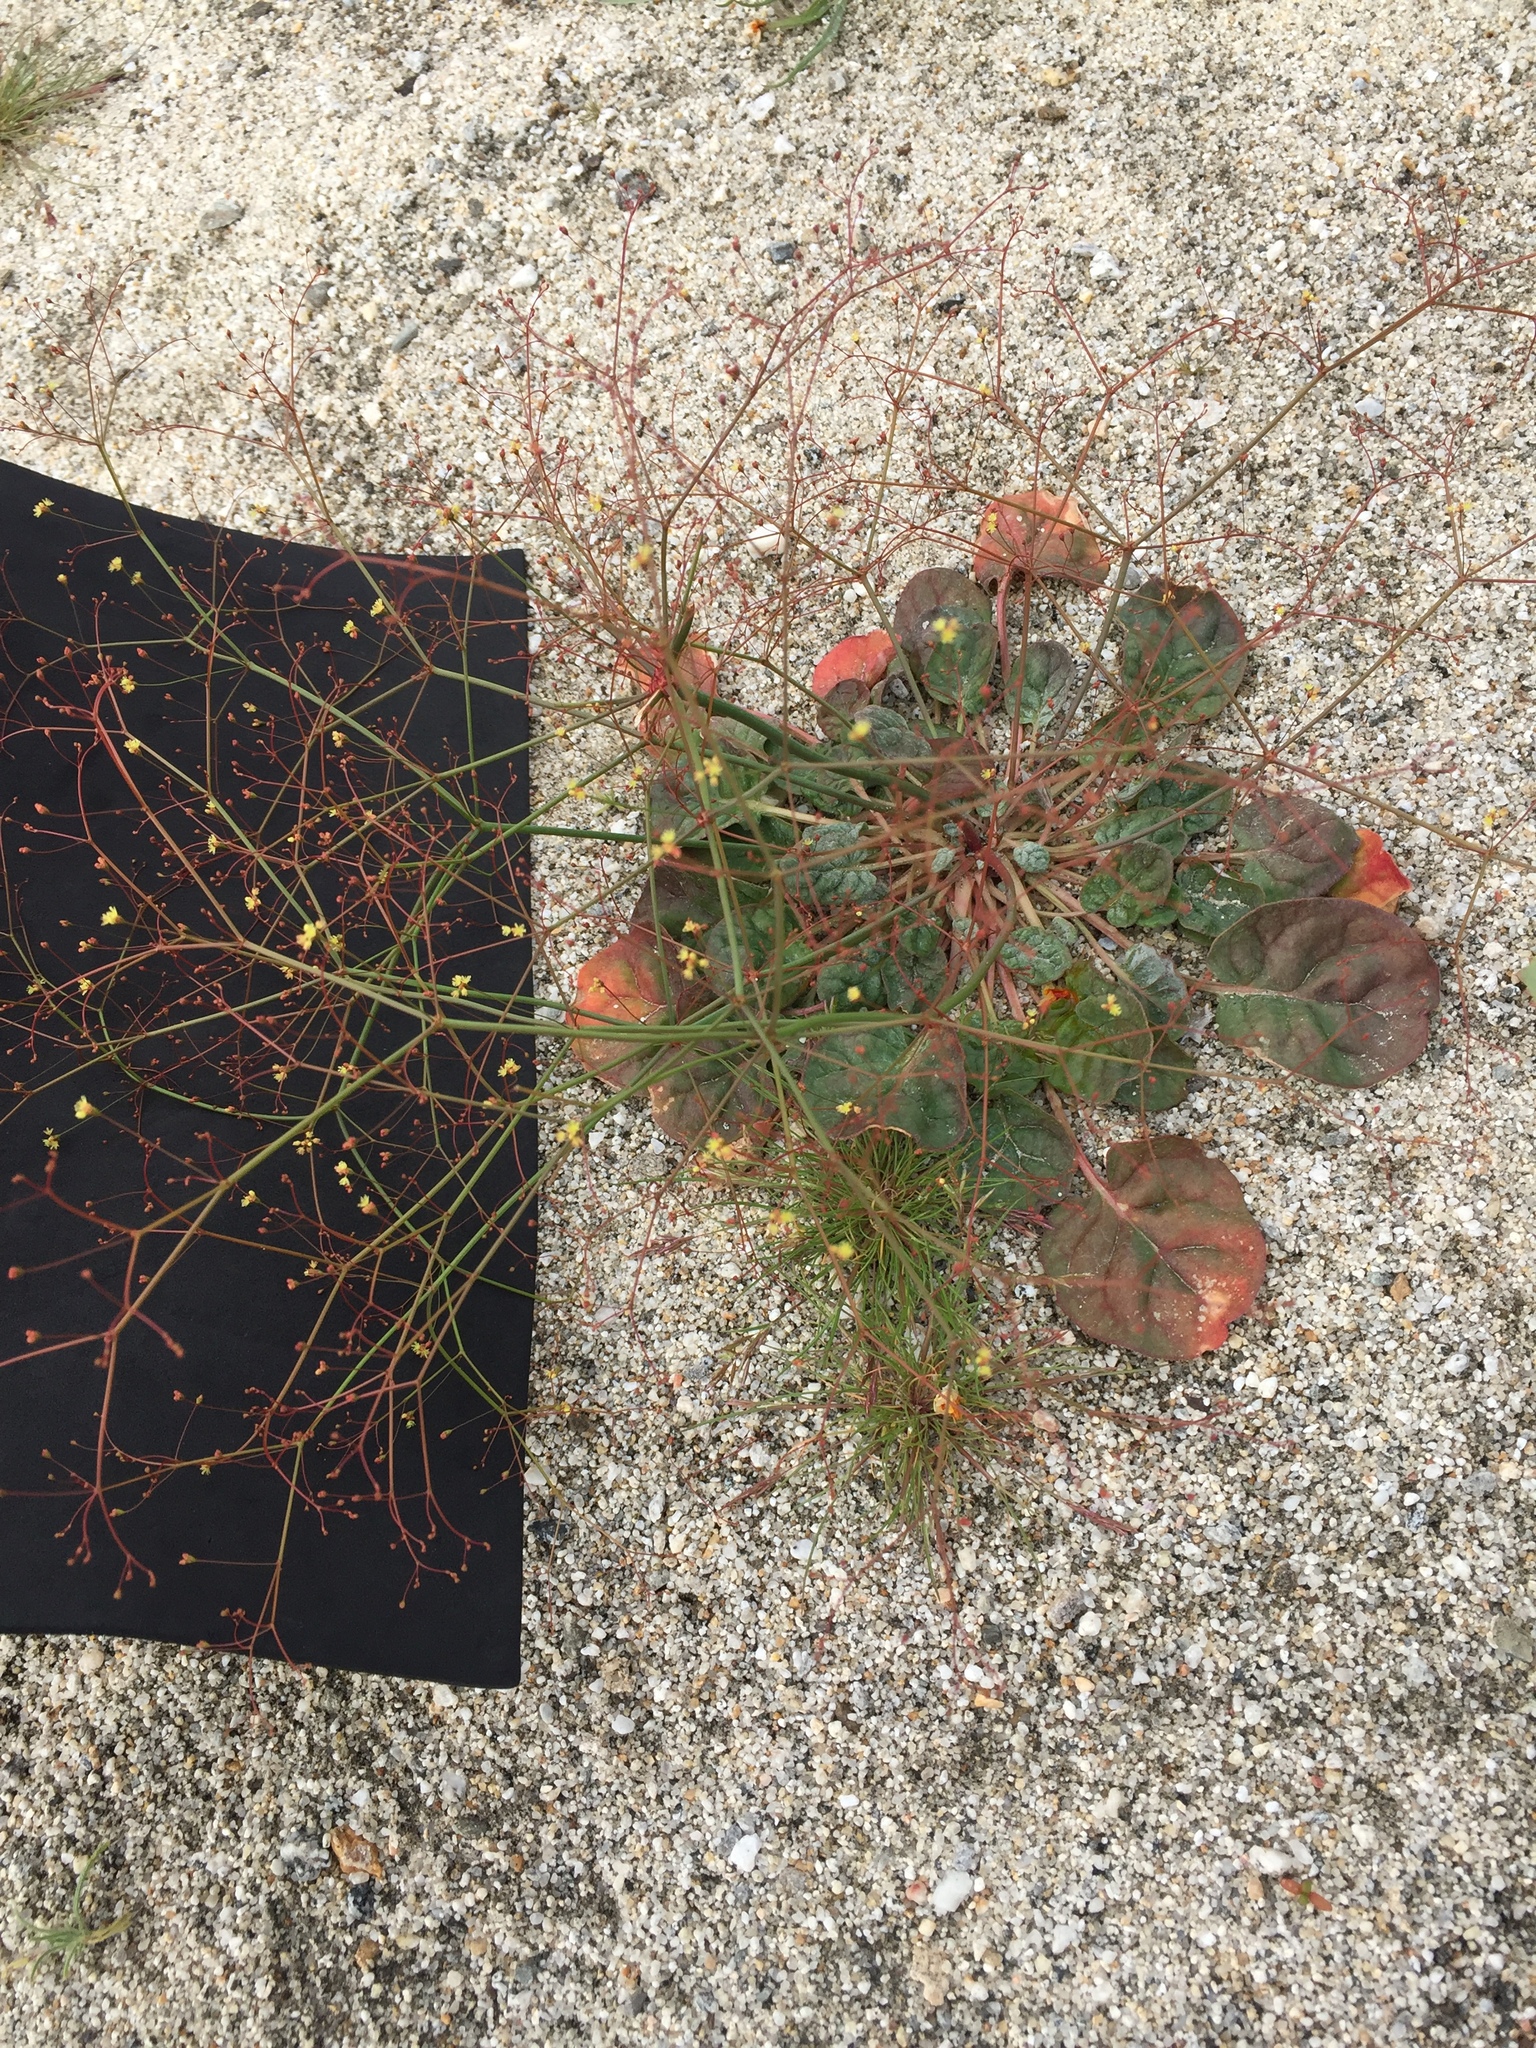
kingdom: Plantae
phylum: Tracheophyta
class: Magnoliopsida
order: Caryophyllales
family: Polygonaceae
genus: Eriogonum
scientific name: Eriogonum thomasii
